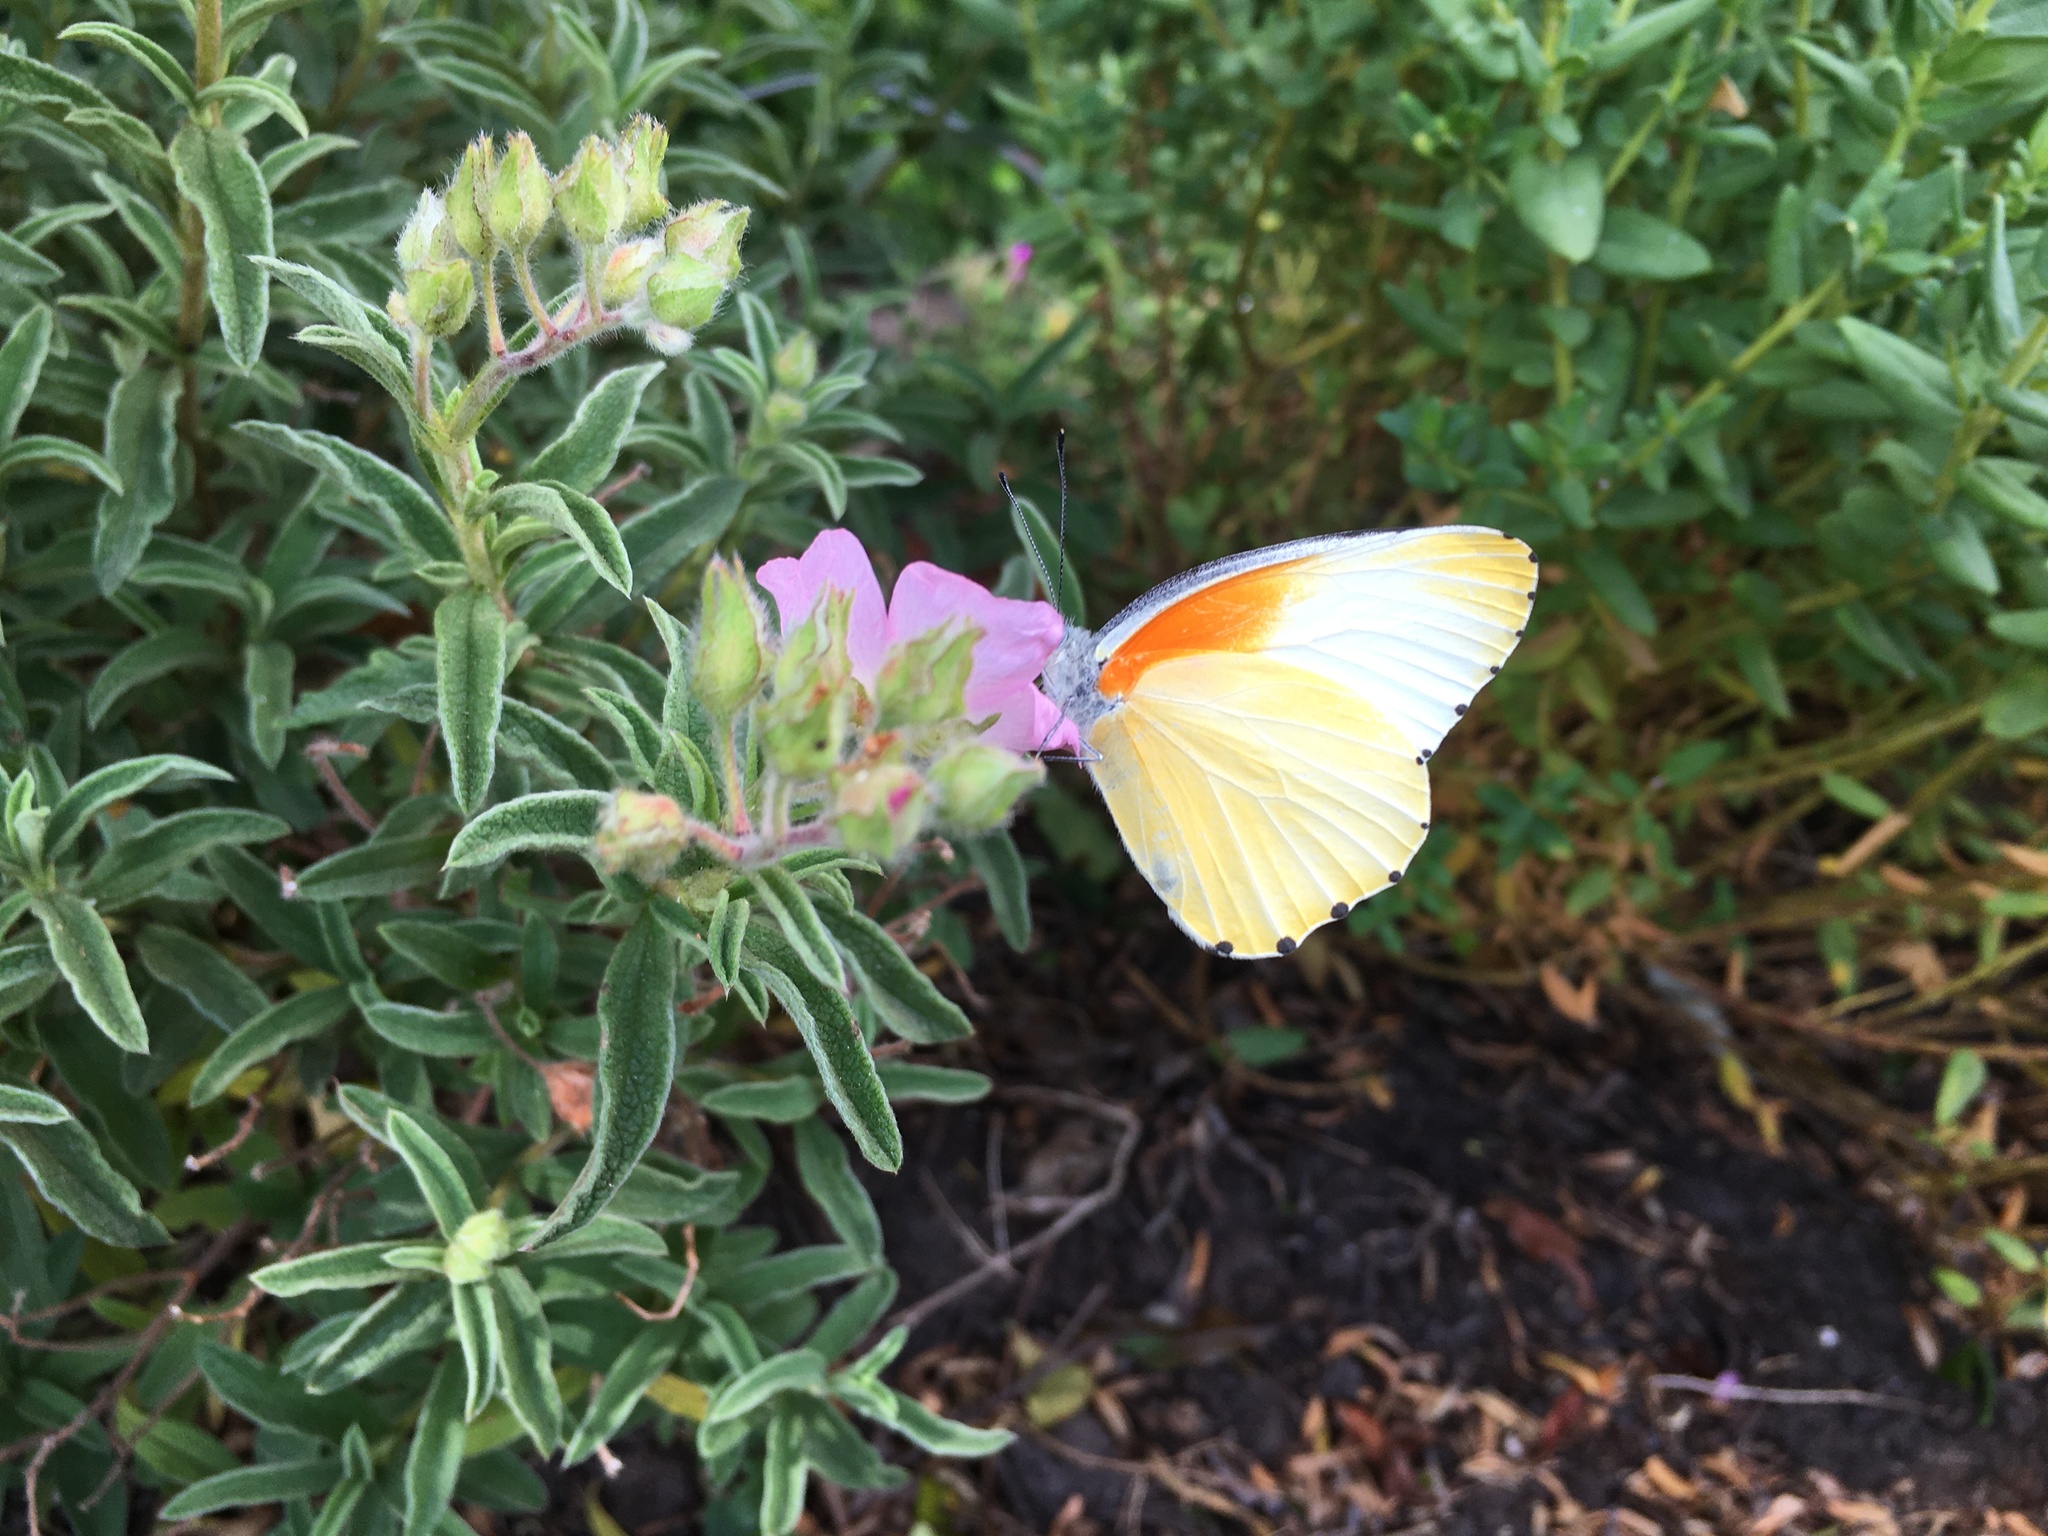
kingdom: Animalia
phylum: Arthropoda
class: Insecta
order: Lepidoptera
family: Pieridae
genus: Mylothris
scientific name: Mylothris agathina
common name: Eastern dotted border
